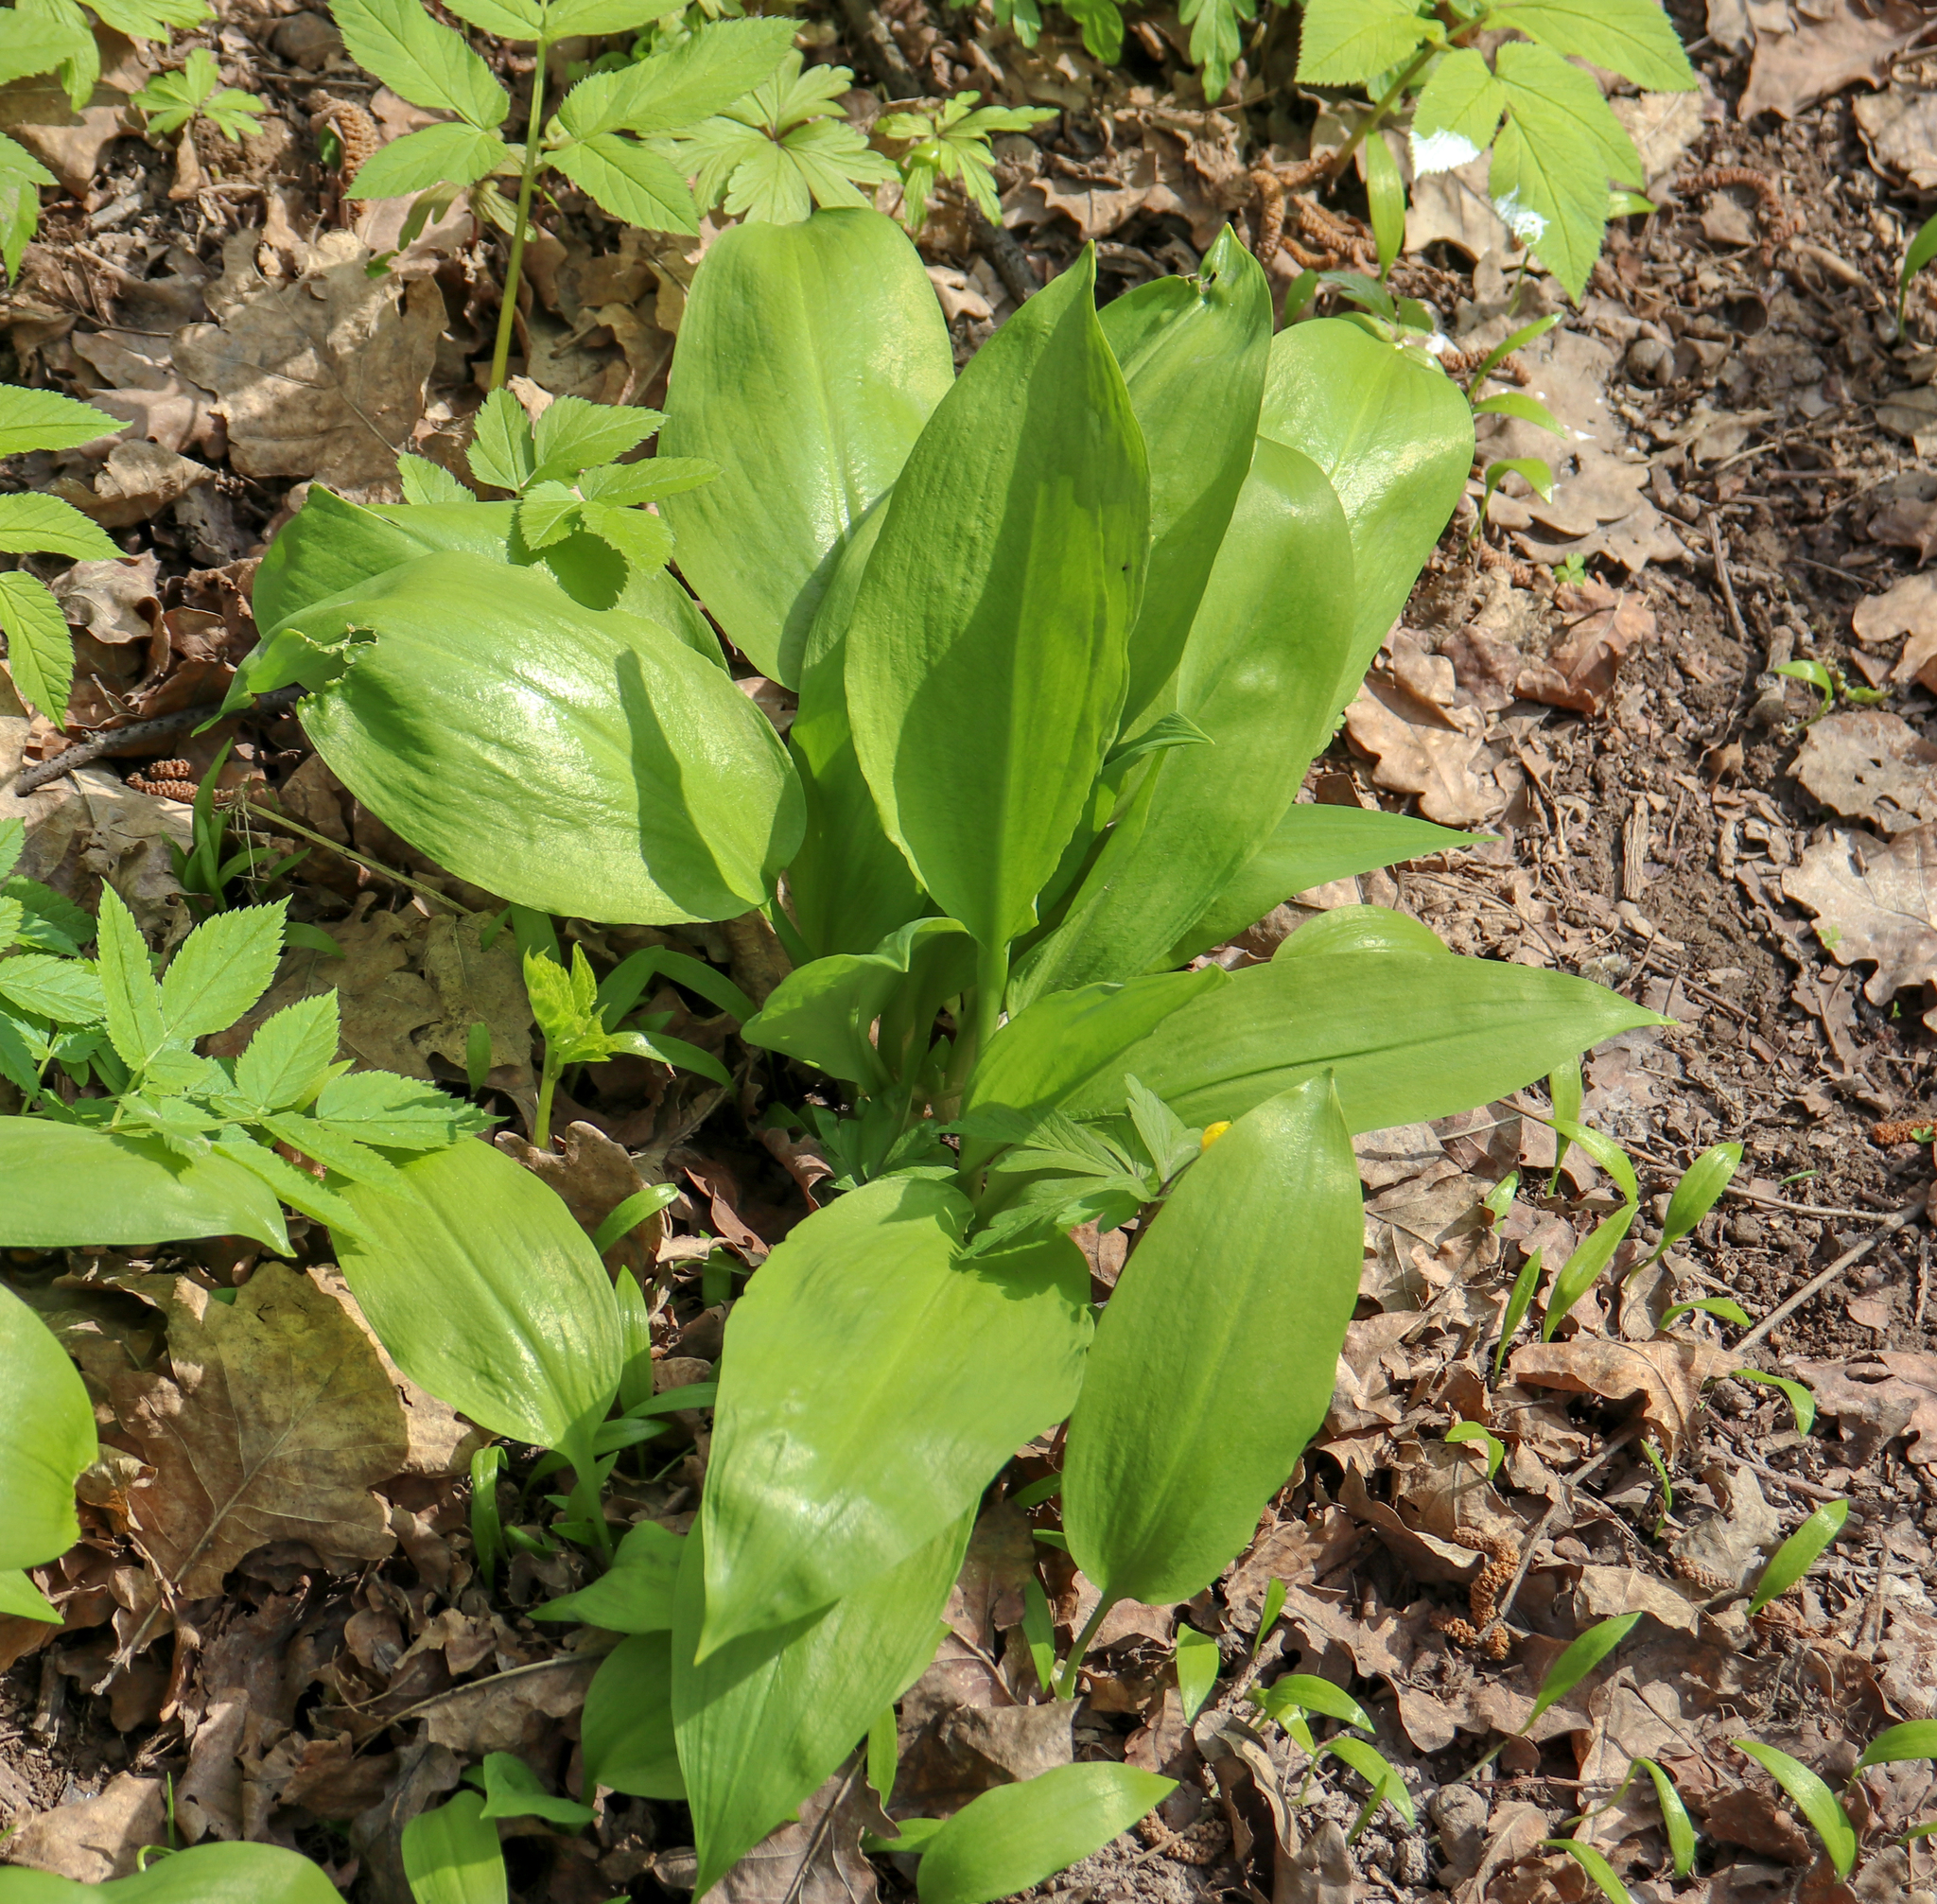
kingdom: Plantae
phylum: Tracheophyta
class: Liliopsida
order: Asparagales
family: Amaryllidaceae
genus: Allium
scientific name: Allium ursinum
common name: Ramsons
